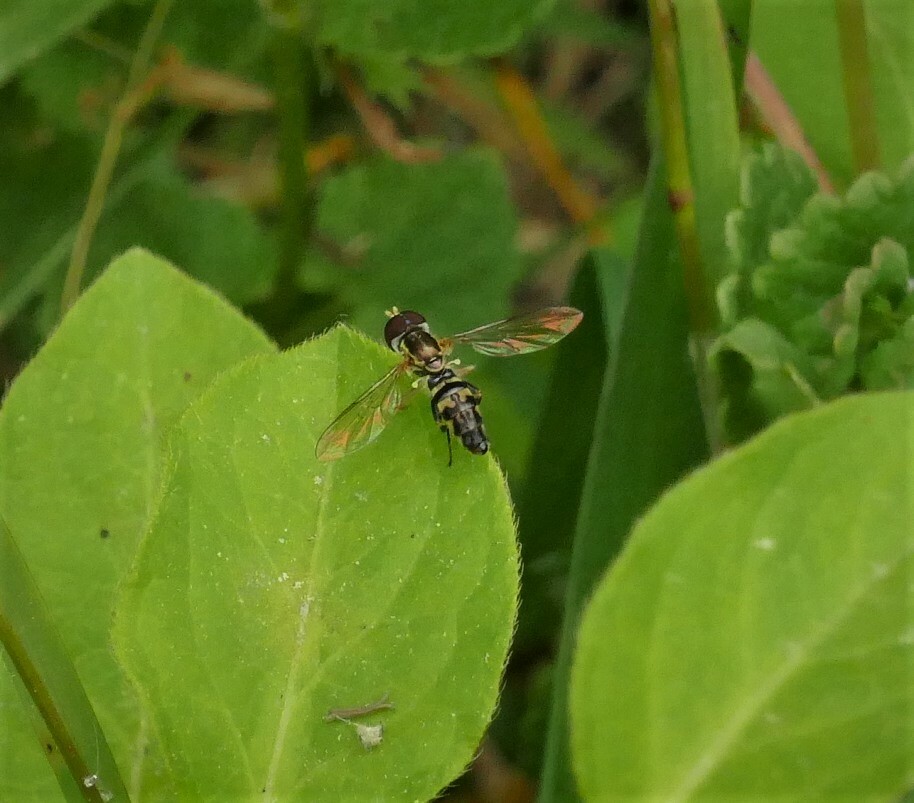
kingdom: Animalia
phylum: Arthropoda
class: Insecta
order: Diptera
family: Syrphidae
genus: Toxomerus
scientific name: Toxomerus geminatus
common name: Eastern calligrapher
